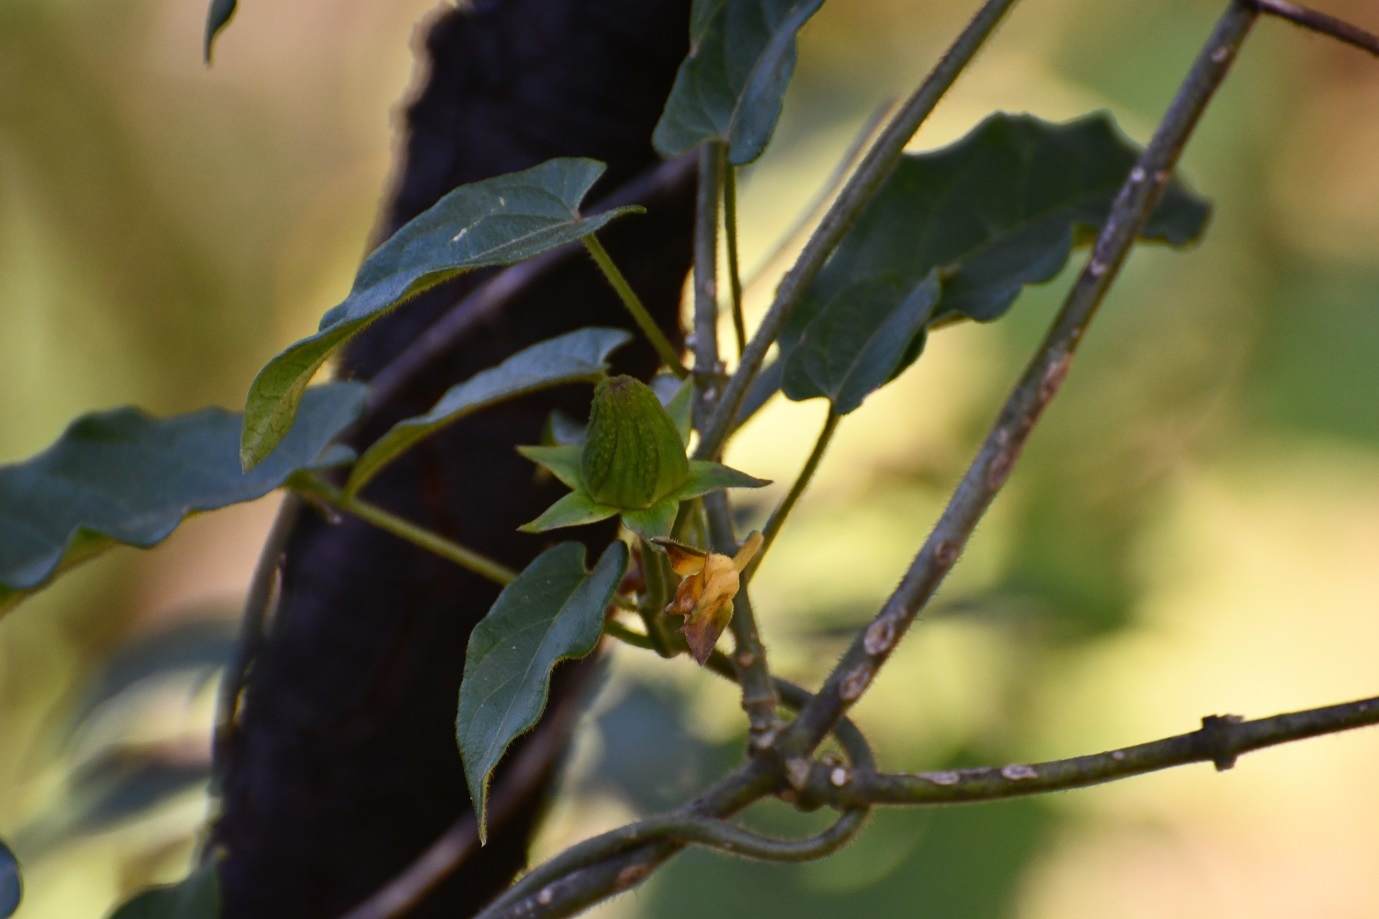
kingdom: Plantae
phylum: Tracheophyta
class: Magnoliopsida
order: Gentianales
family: Apocynaceae
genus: Gonolobus
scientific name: Gonolobus incerianus
